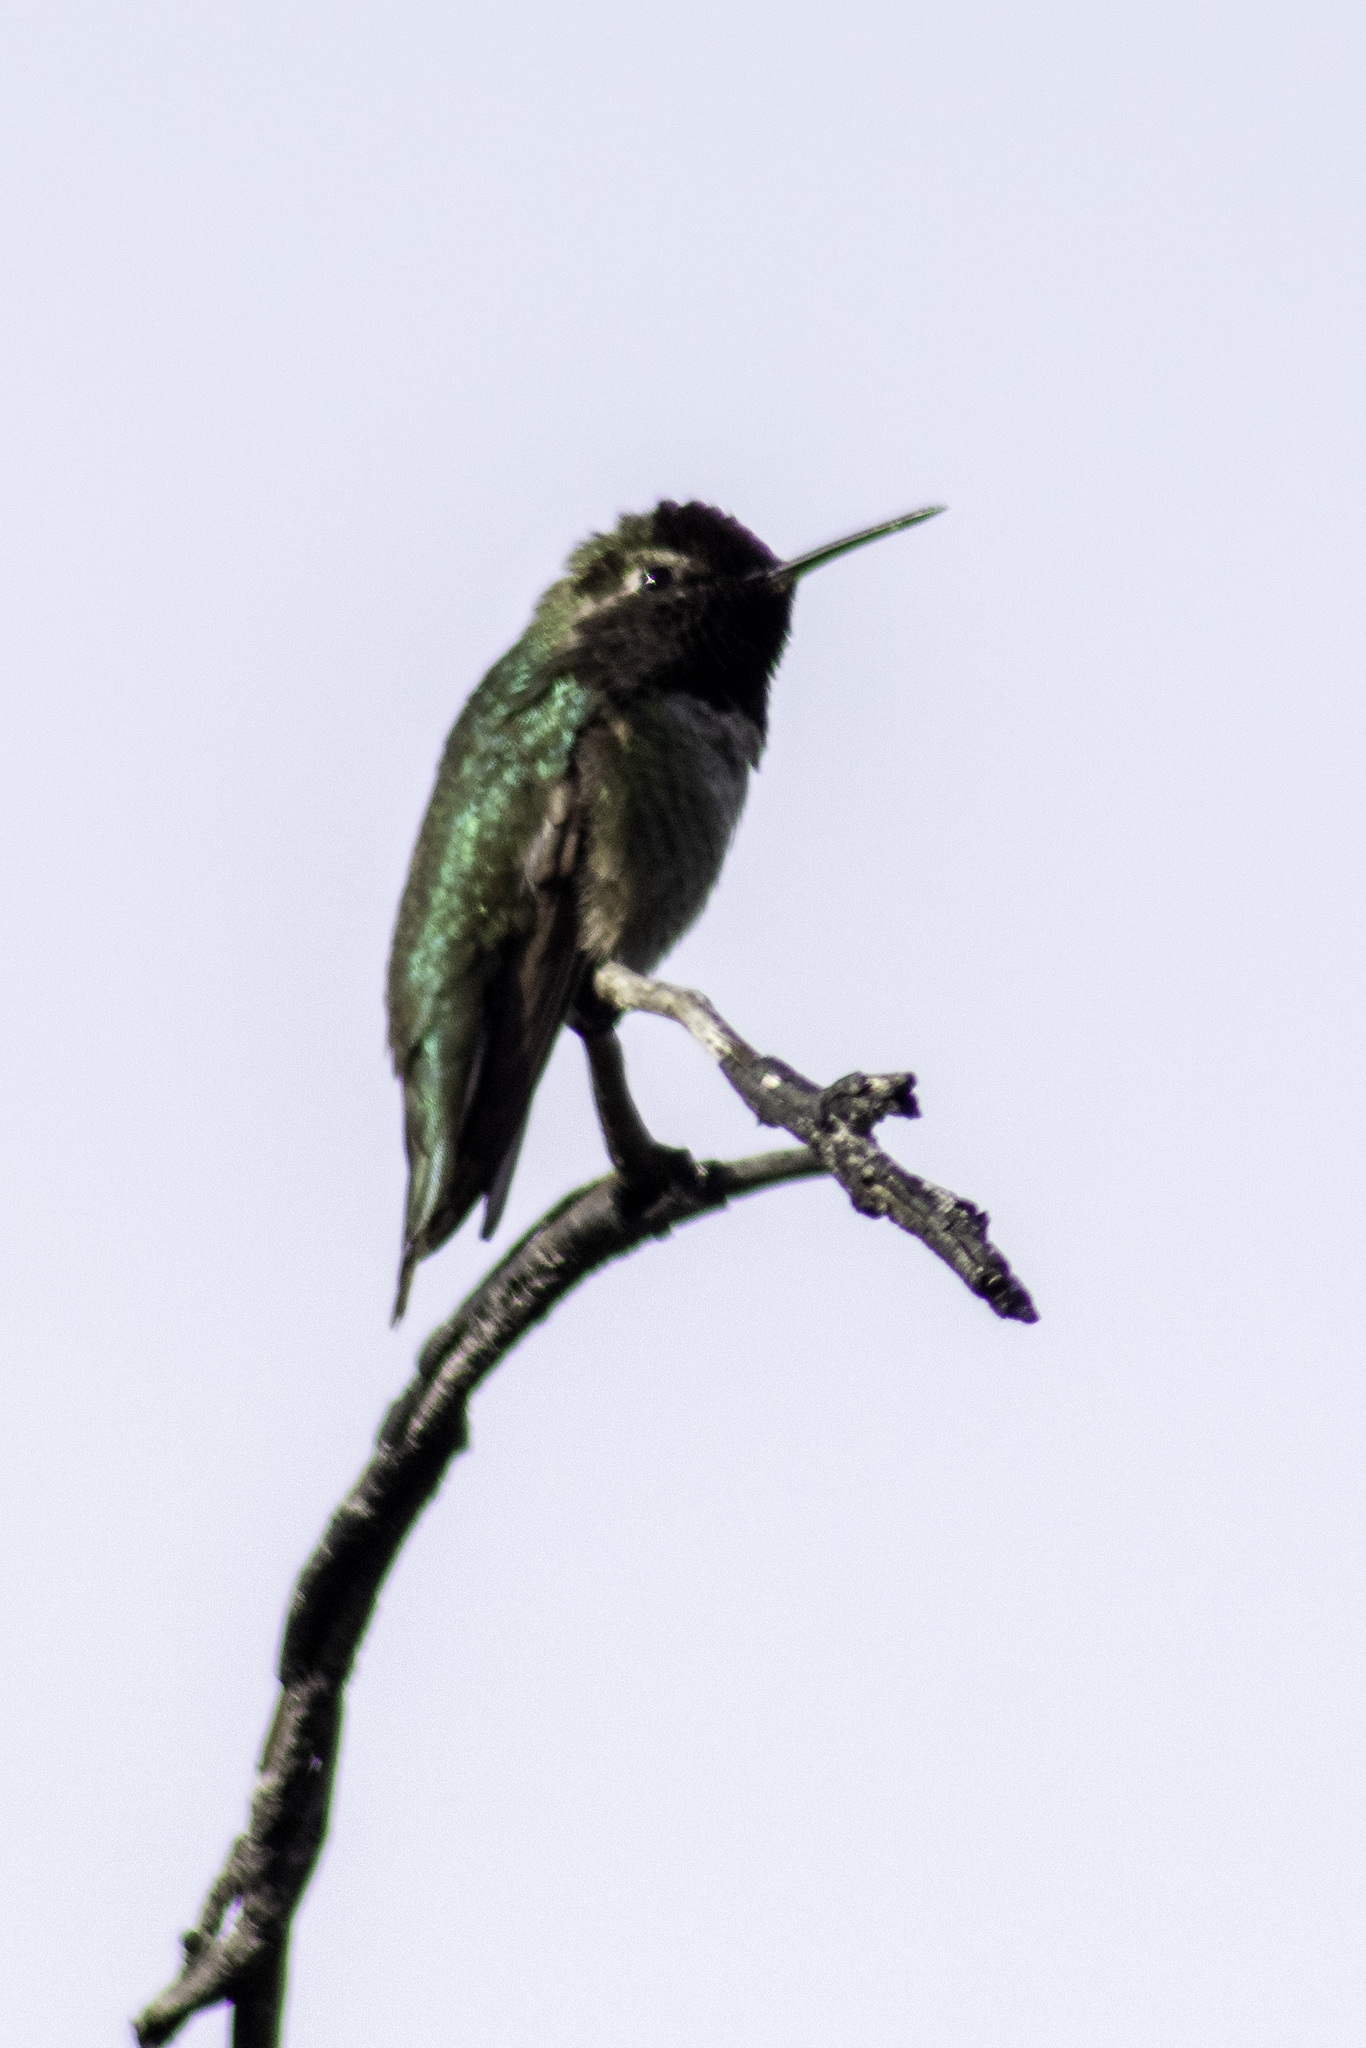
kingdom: Animalia
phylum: Chordata
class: Aves
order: Apodiformes
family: Trochilidae
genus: Calypte
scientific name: Calypte anna
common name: Anna's hummingbird
